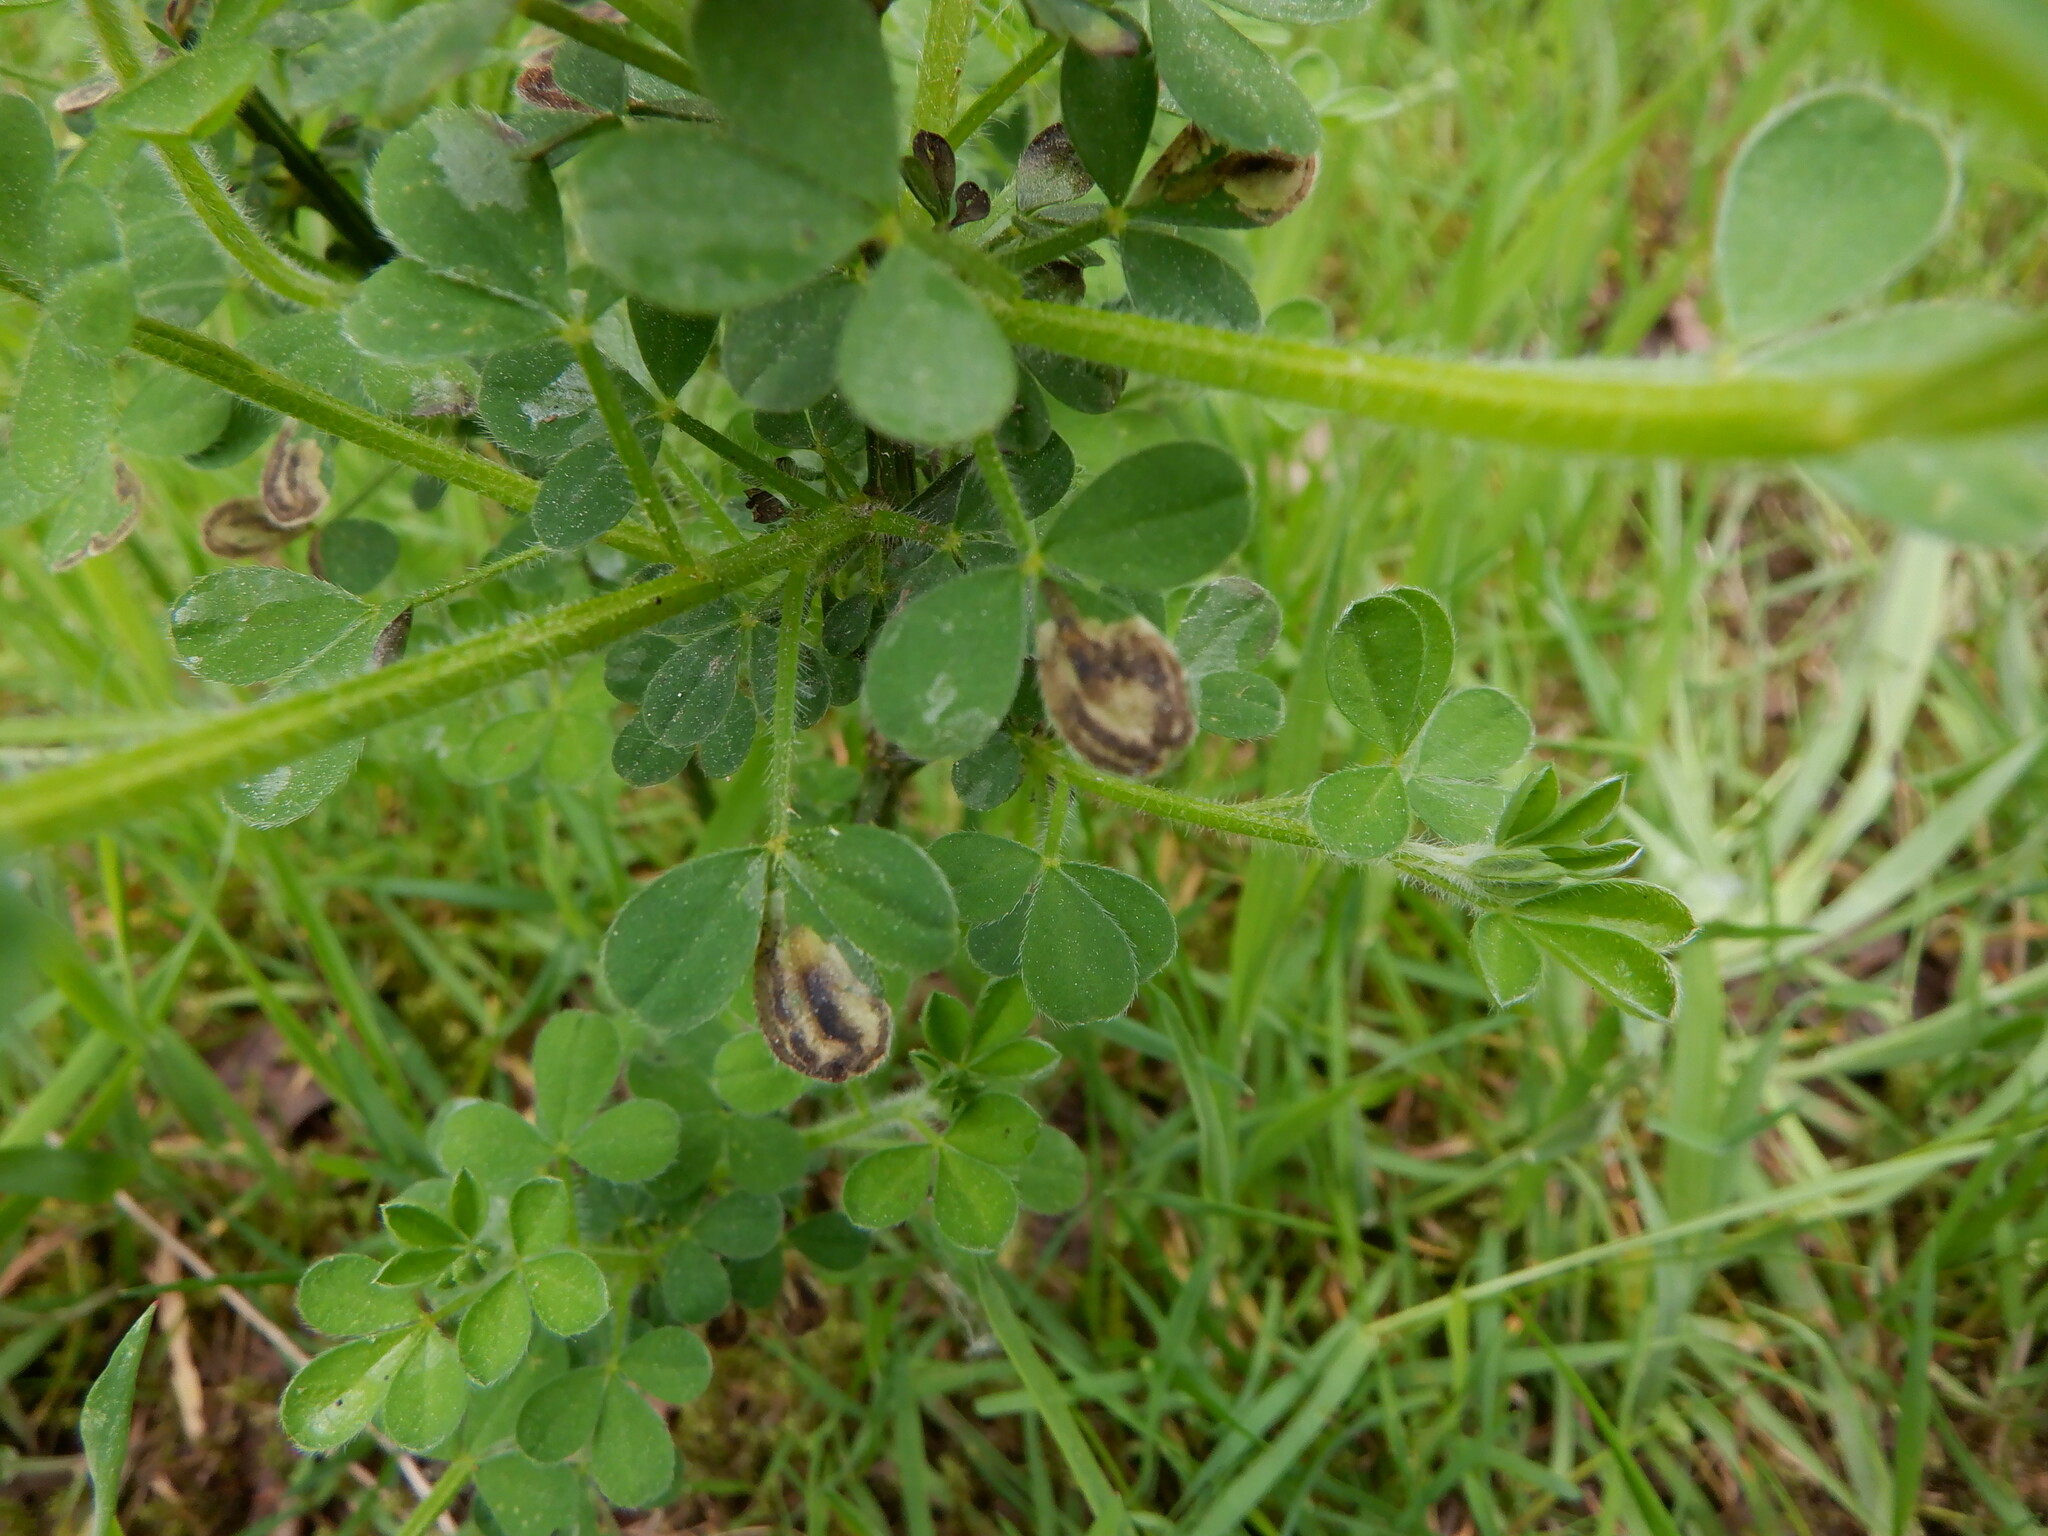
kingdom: Animalia
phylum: Arthropoda
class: Insecta
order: Diptera
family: Agromyzidae
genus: Agromyza
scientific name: Agromyza johannae
